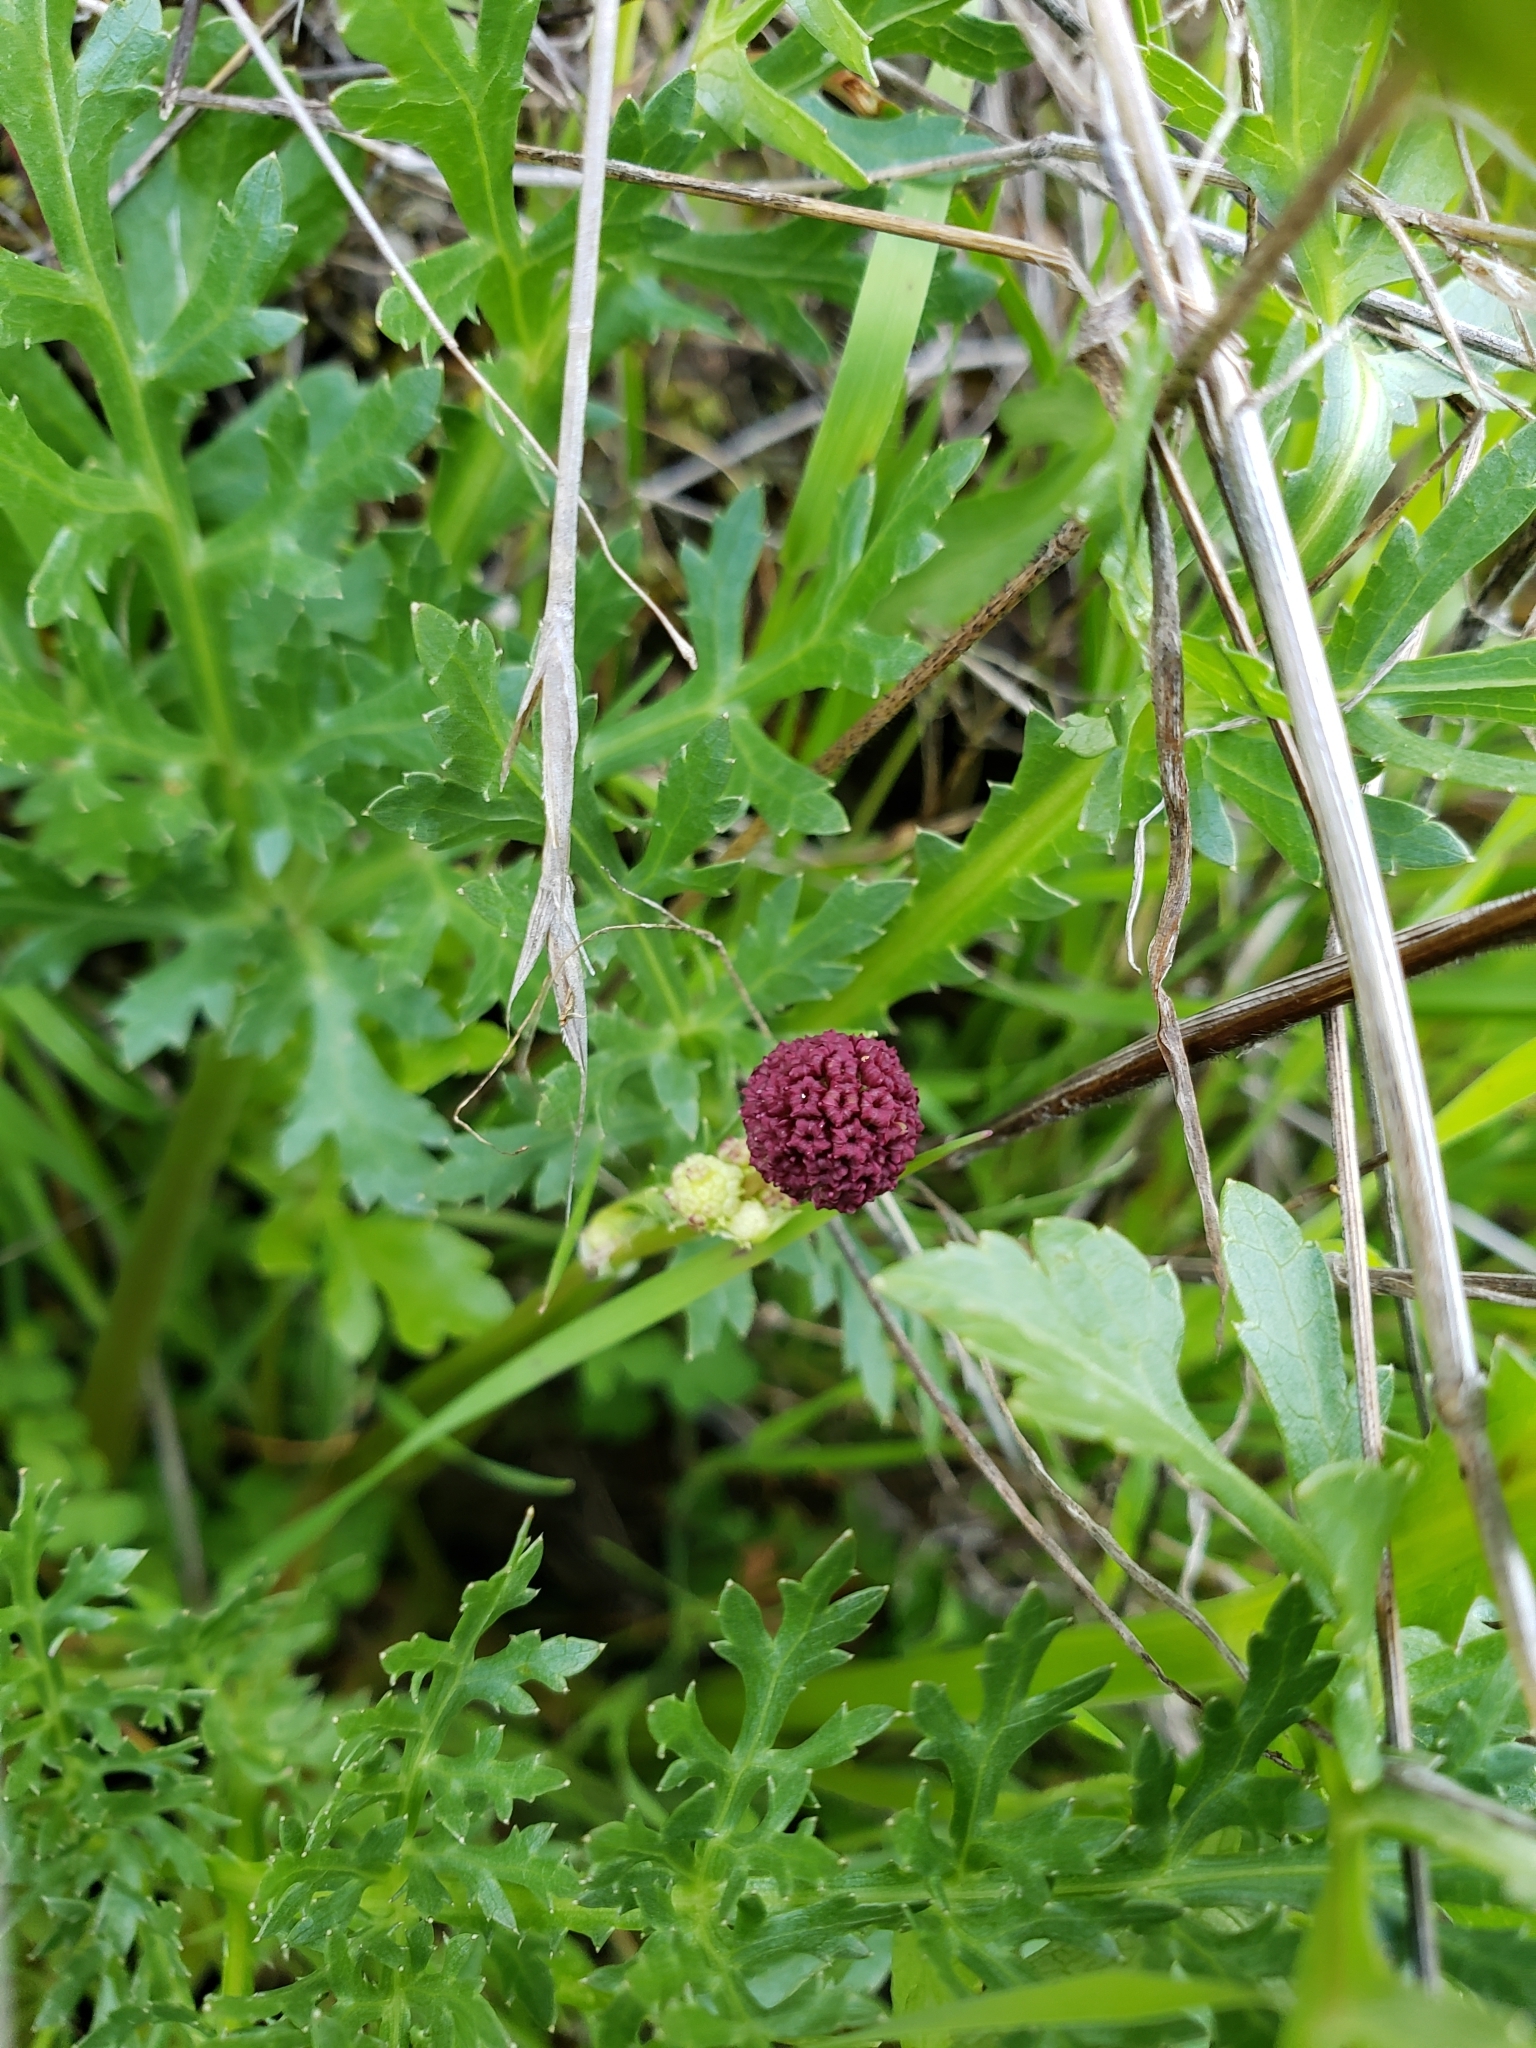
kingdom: Plantae
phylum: Tracheophyta
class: Magnoliopsida
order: Apiales
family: Apiaceae
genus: Sanicula
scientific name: Sanicula bipinnatifida
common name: Shoe-buttons
